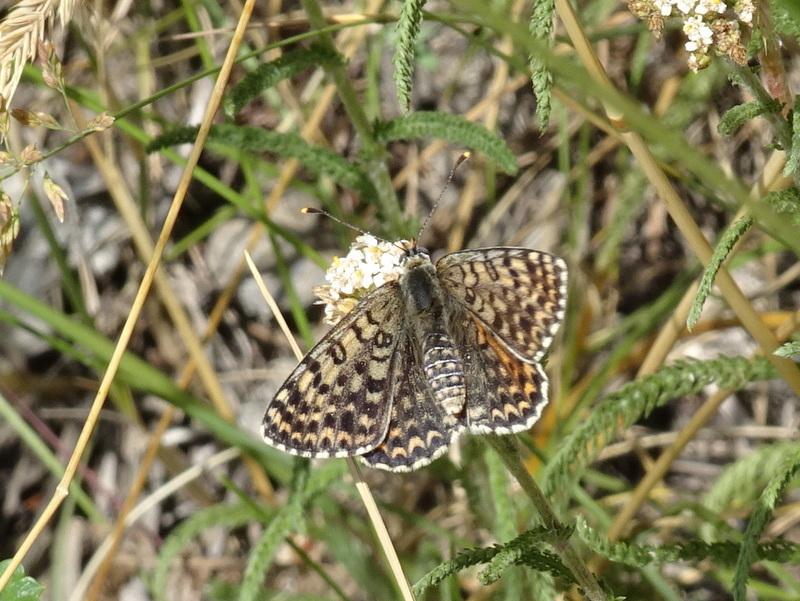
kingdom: Animalia
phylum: Arthropoda
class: Insecta
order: Lepidoptera
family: Nymphalidae
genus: Melitaea
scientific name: Melitaea didyma
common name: Spotted fritillary
